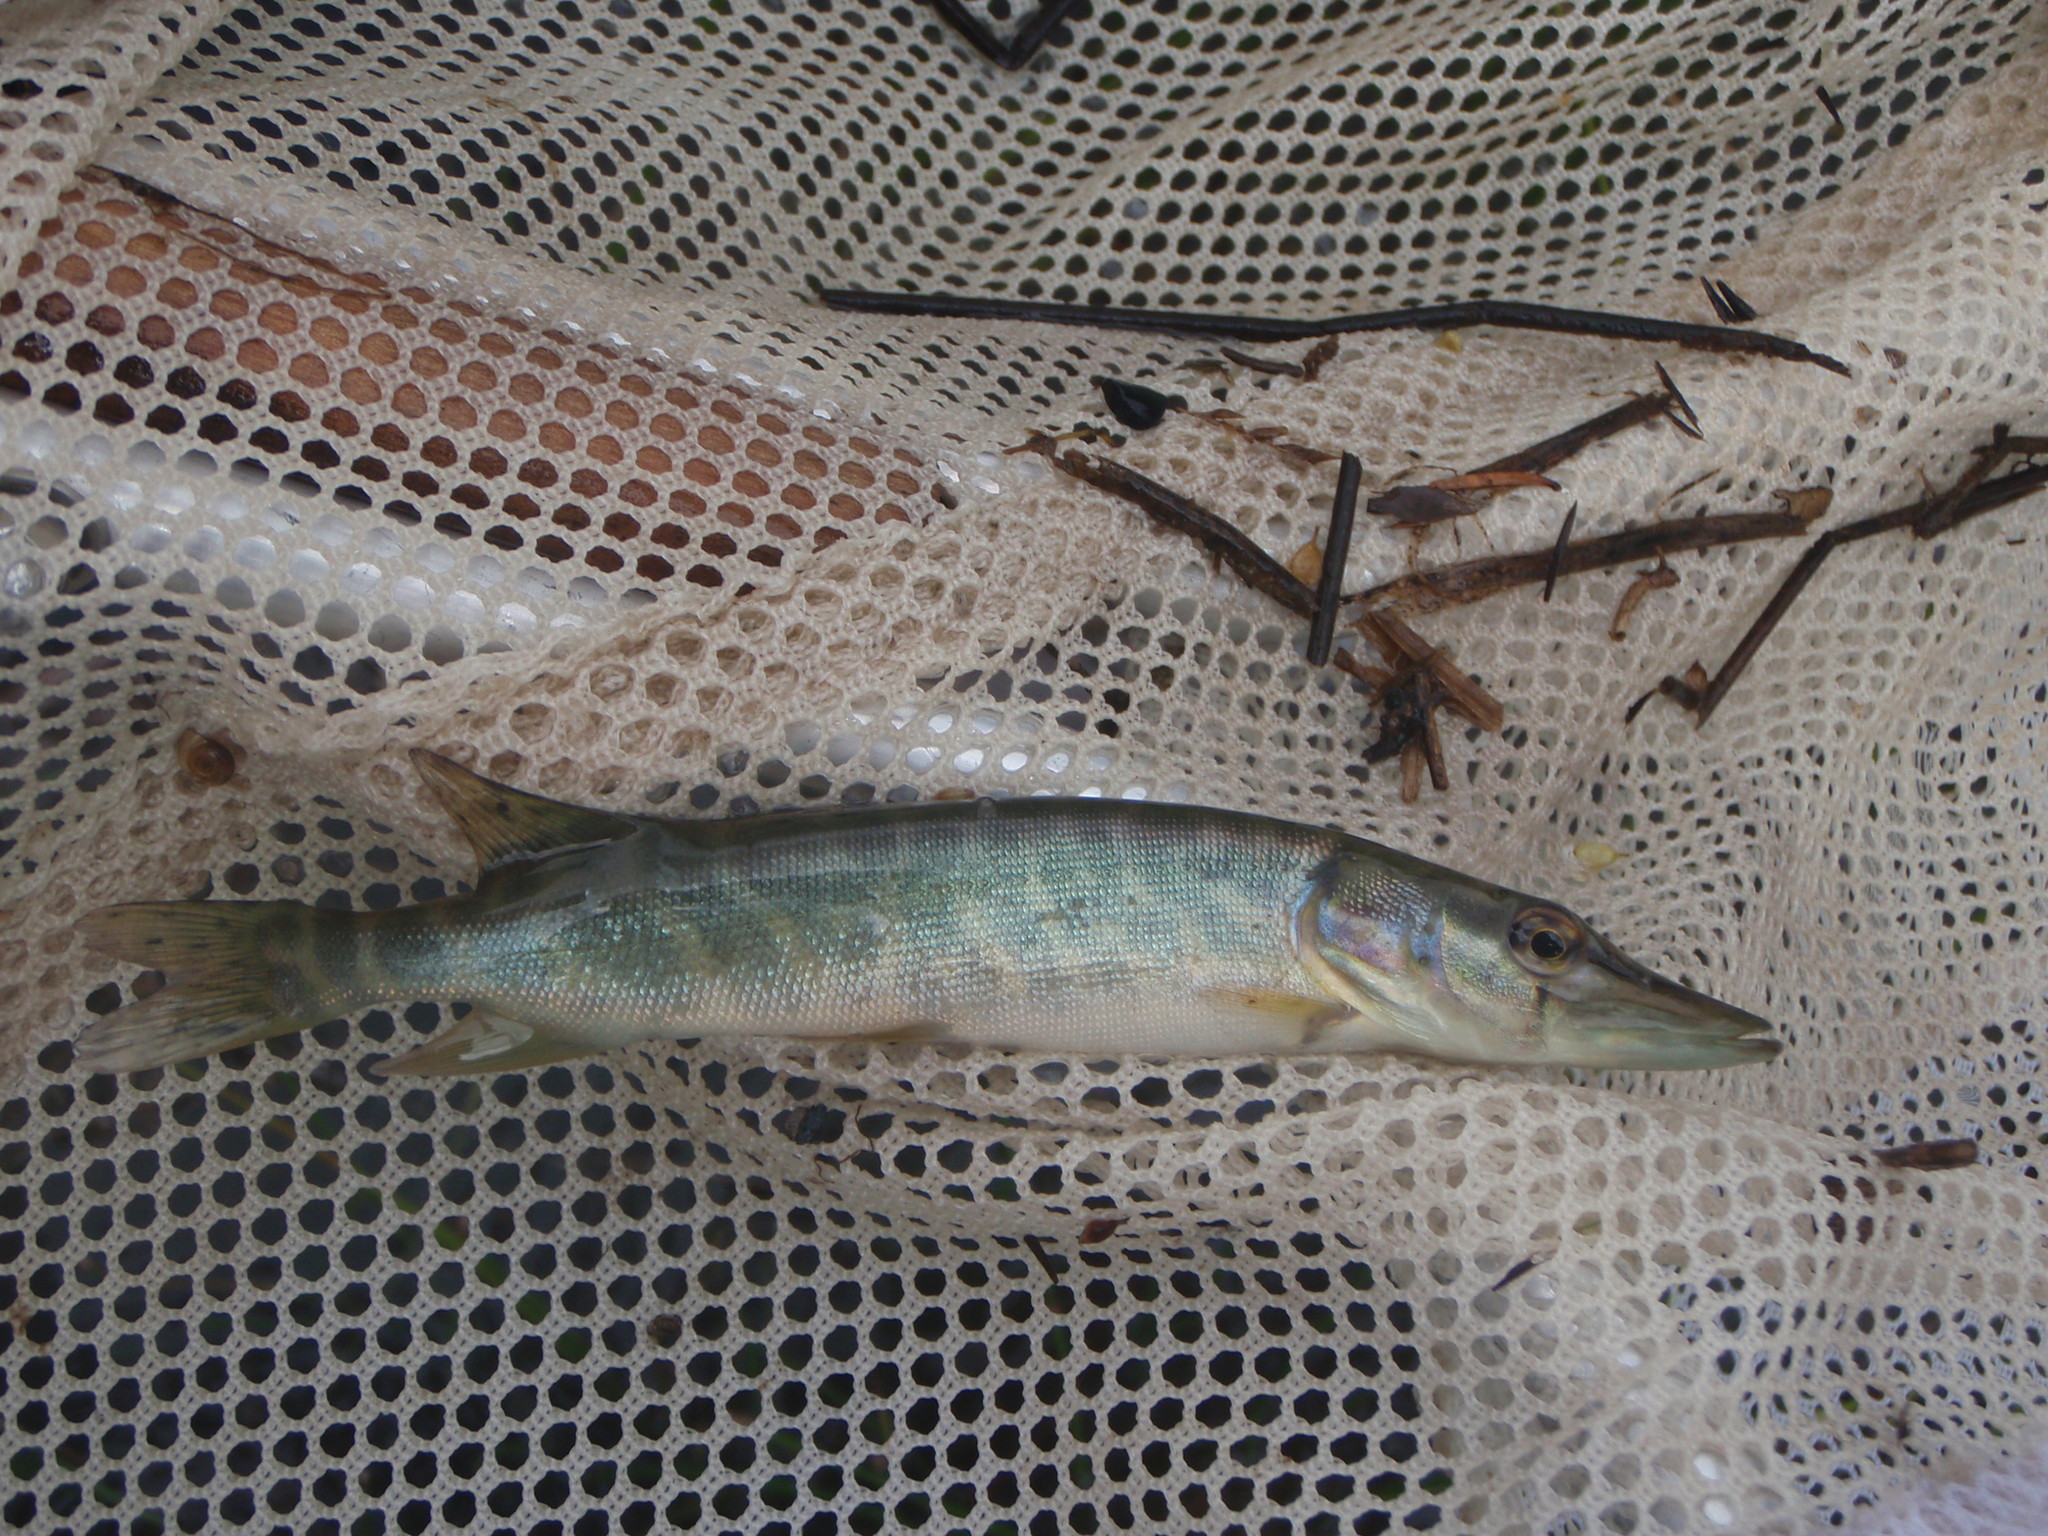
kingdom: Animalia
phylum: Chordata
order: Esociformes
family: Esocidae
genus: Esox
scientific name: Esox lucius
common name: Northern pike
